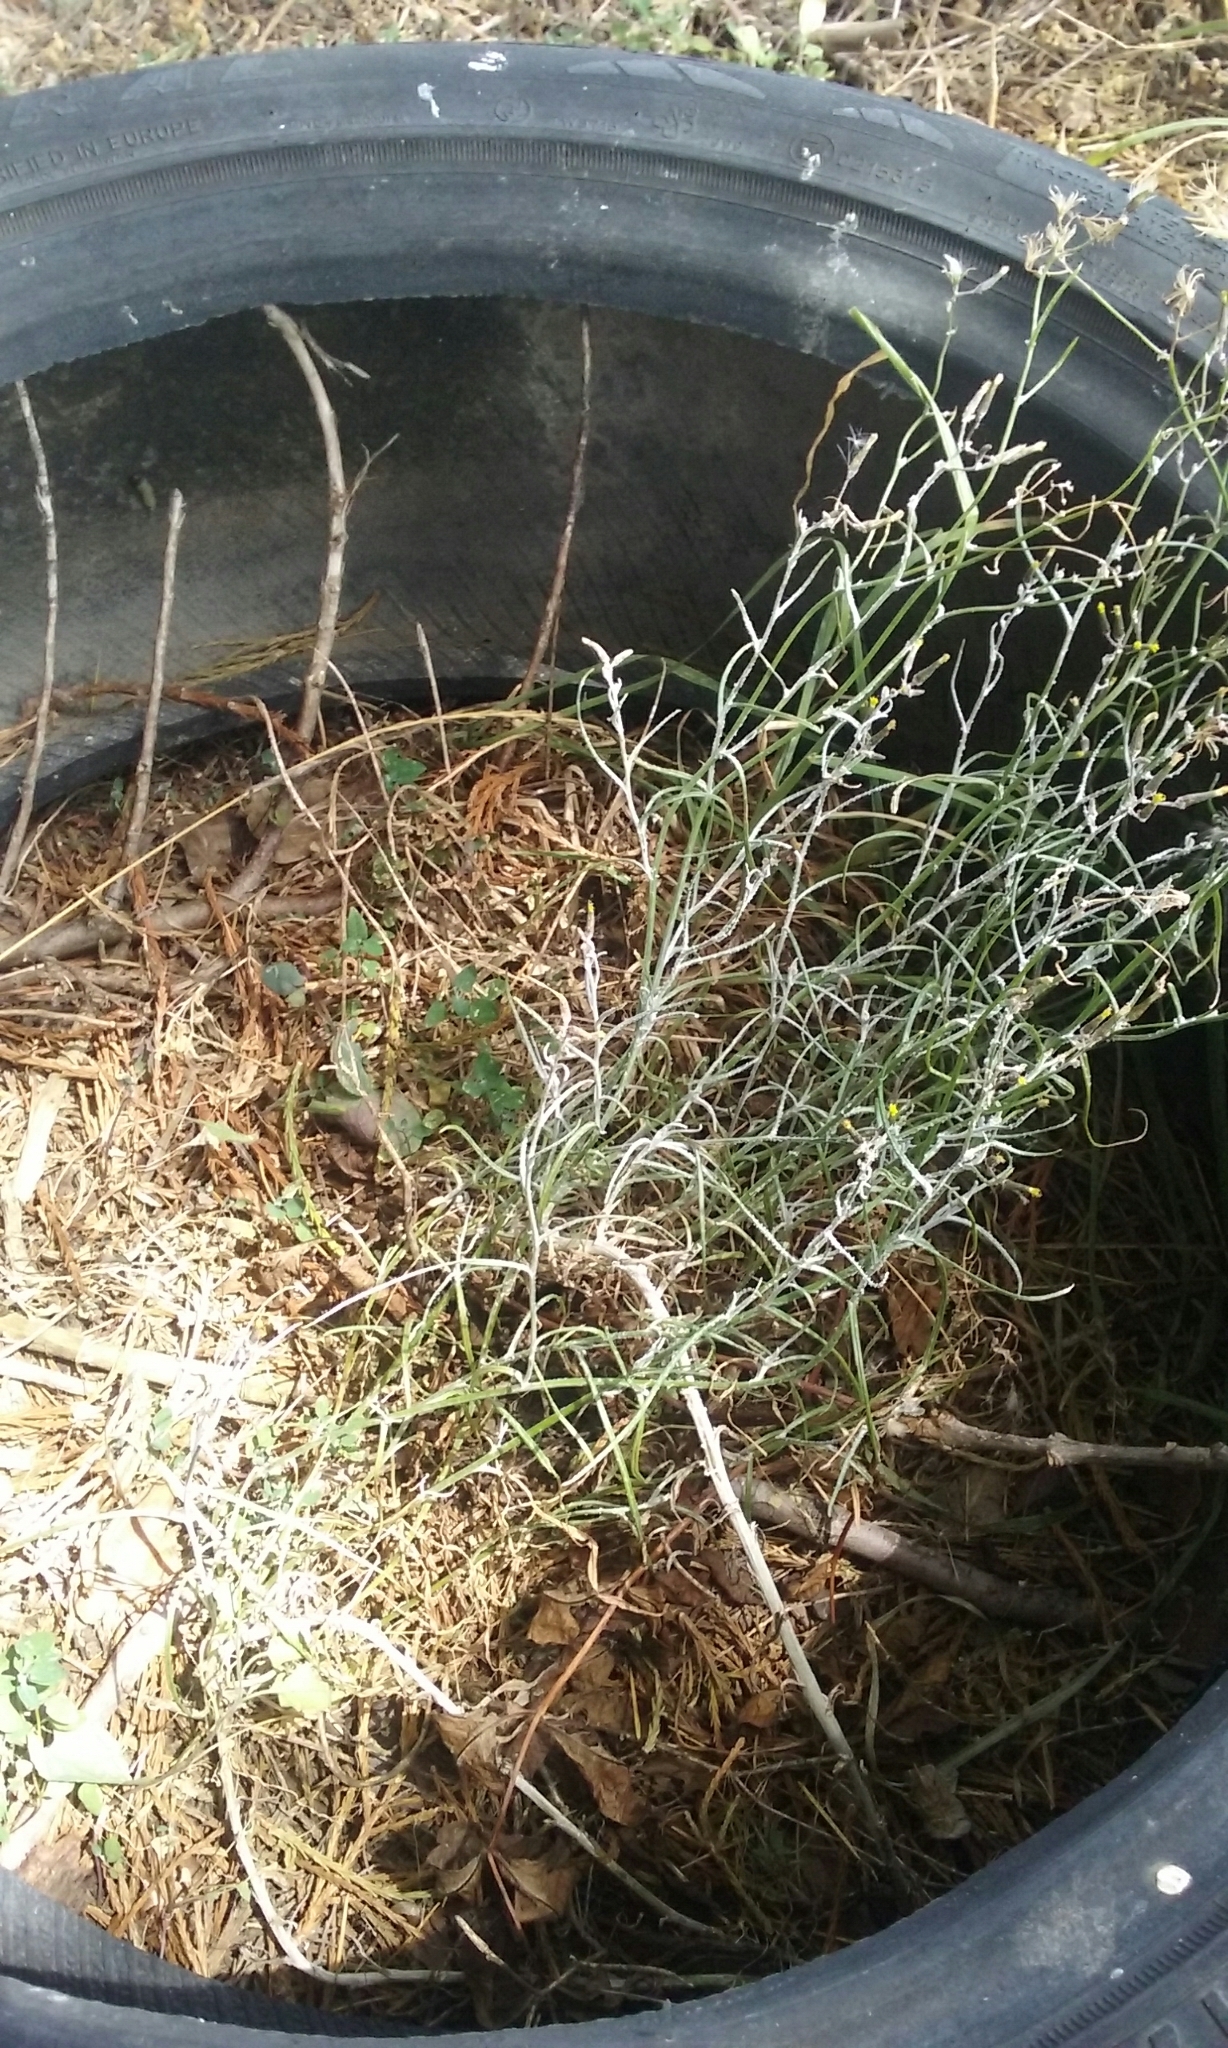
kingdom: Plantae
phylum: Tracheophyta
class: Magnoliopsida
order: Asterales
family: Asteraceae
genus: Senecio
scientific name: Senecio quadridentatus
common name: Cotton fireweed
